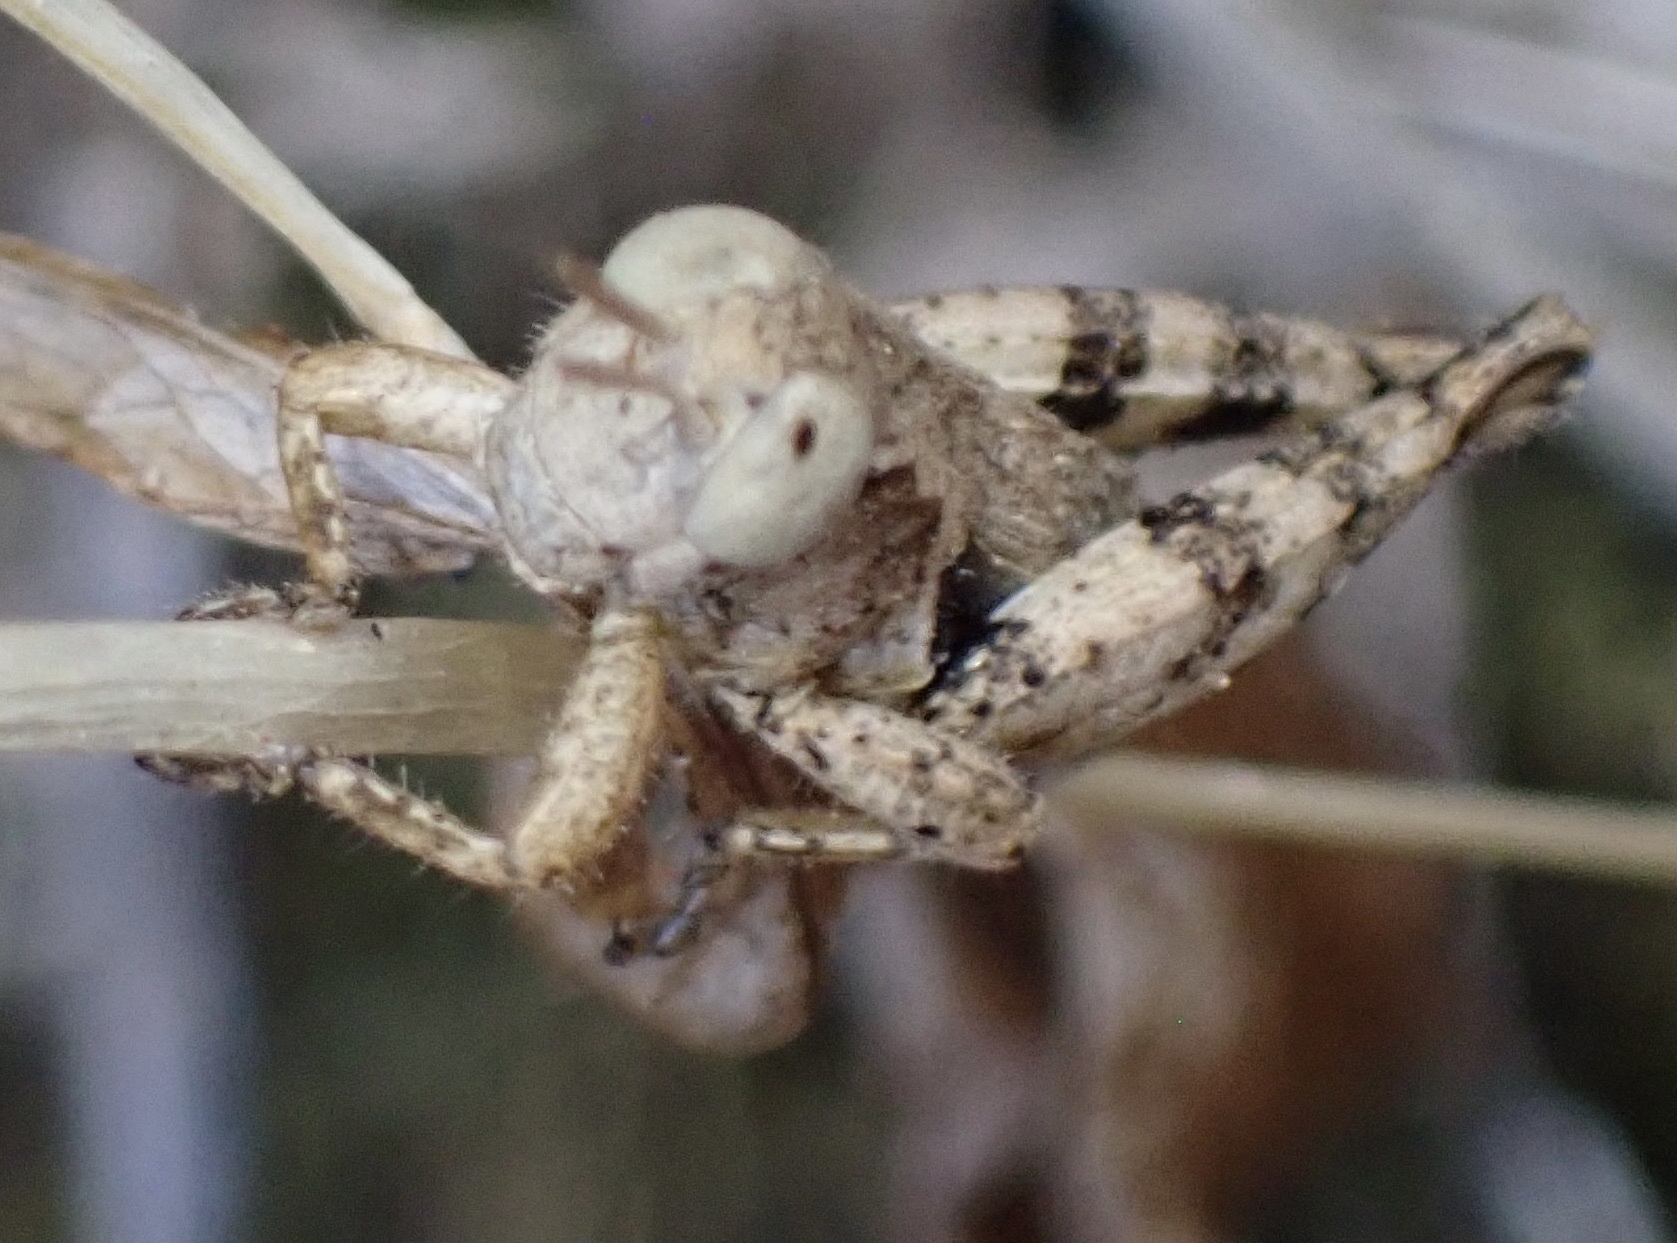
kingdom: Animalia
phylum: Arthropoda
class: Insecta
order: Orthoptera
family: Acrididae
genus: Pezotettix
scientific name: Pezotettix giornae
